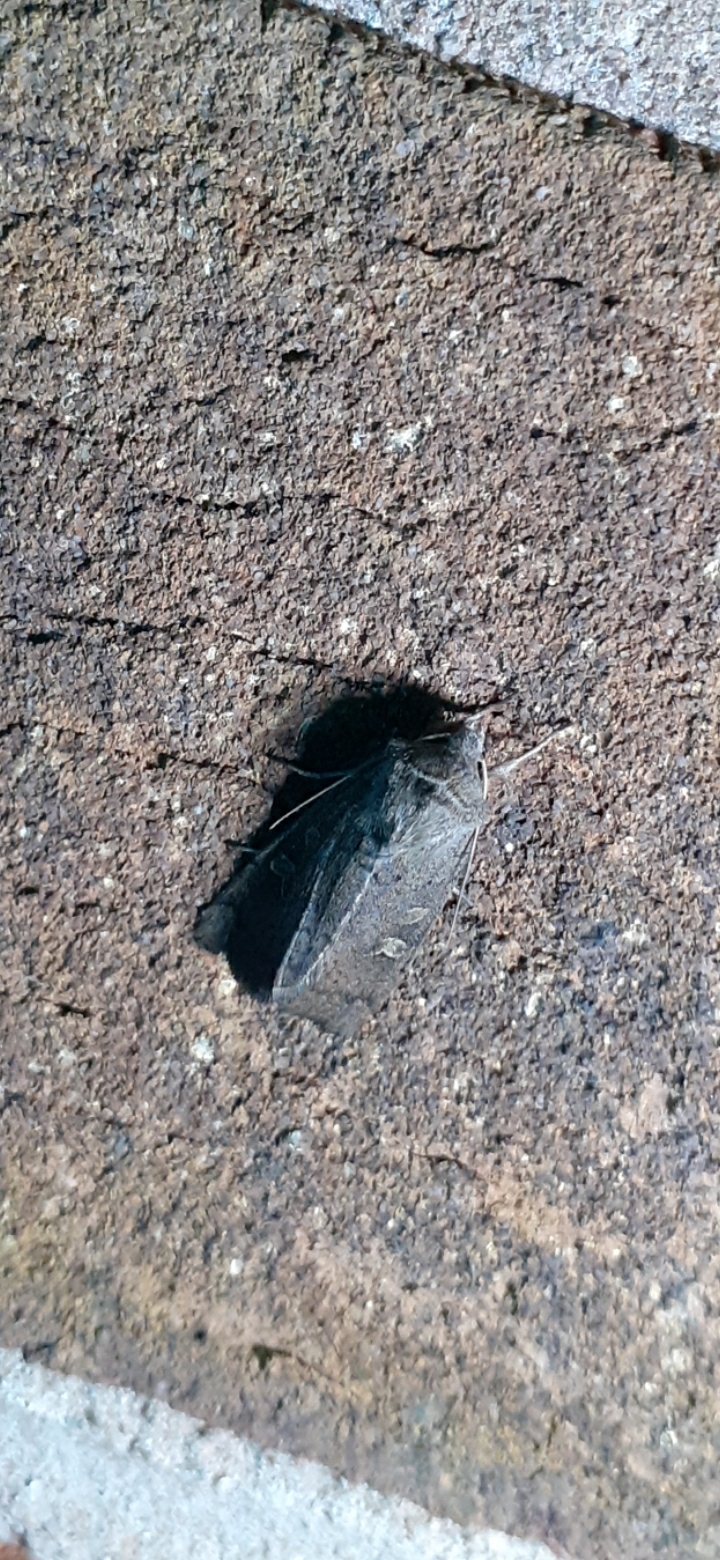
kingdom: Animalia
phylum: Arthropoda
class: Insecta
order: Lepidoptera
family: Noctuidae
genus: Xestia
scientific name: Xestia xanthographa
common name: Square-spot rustic
